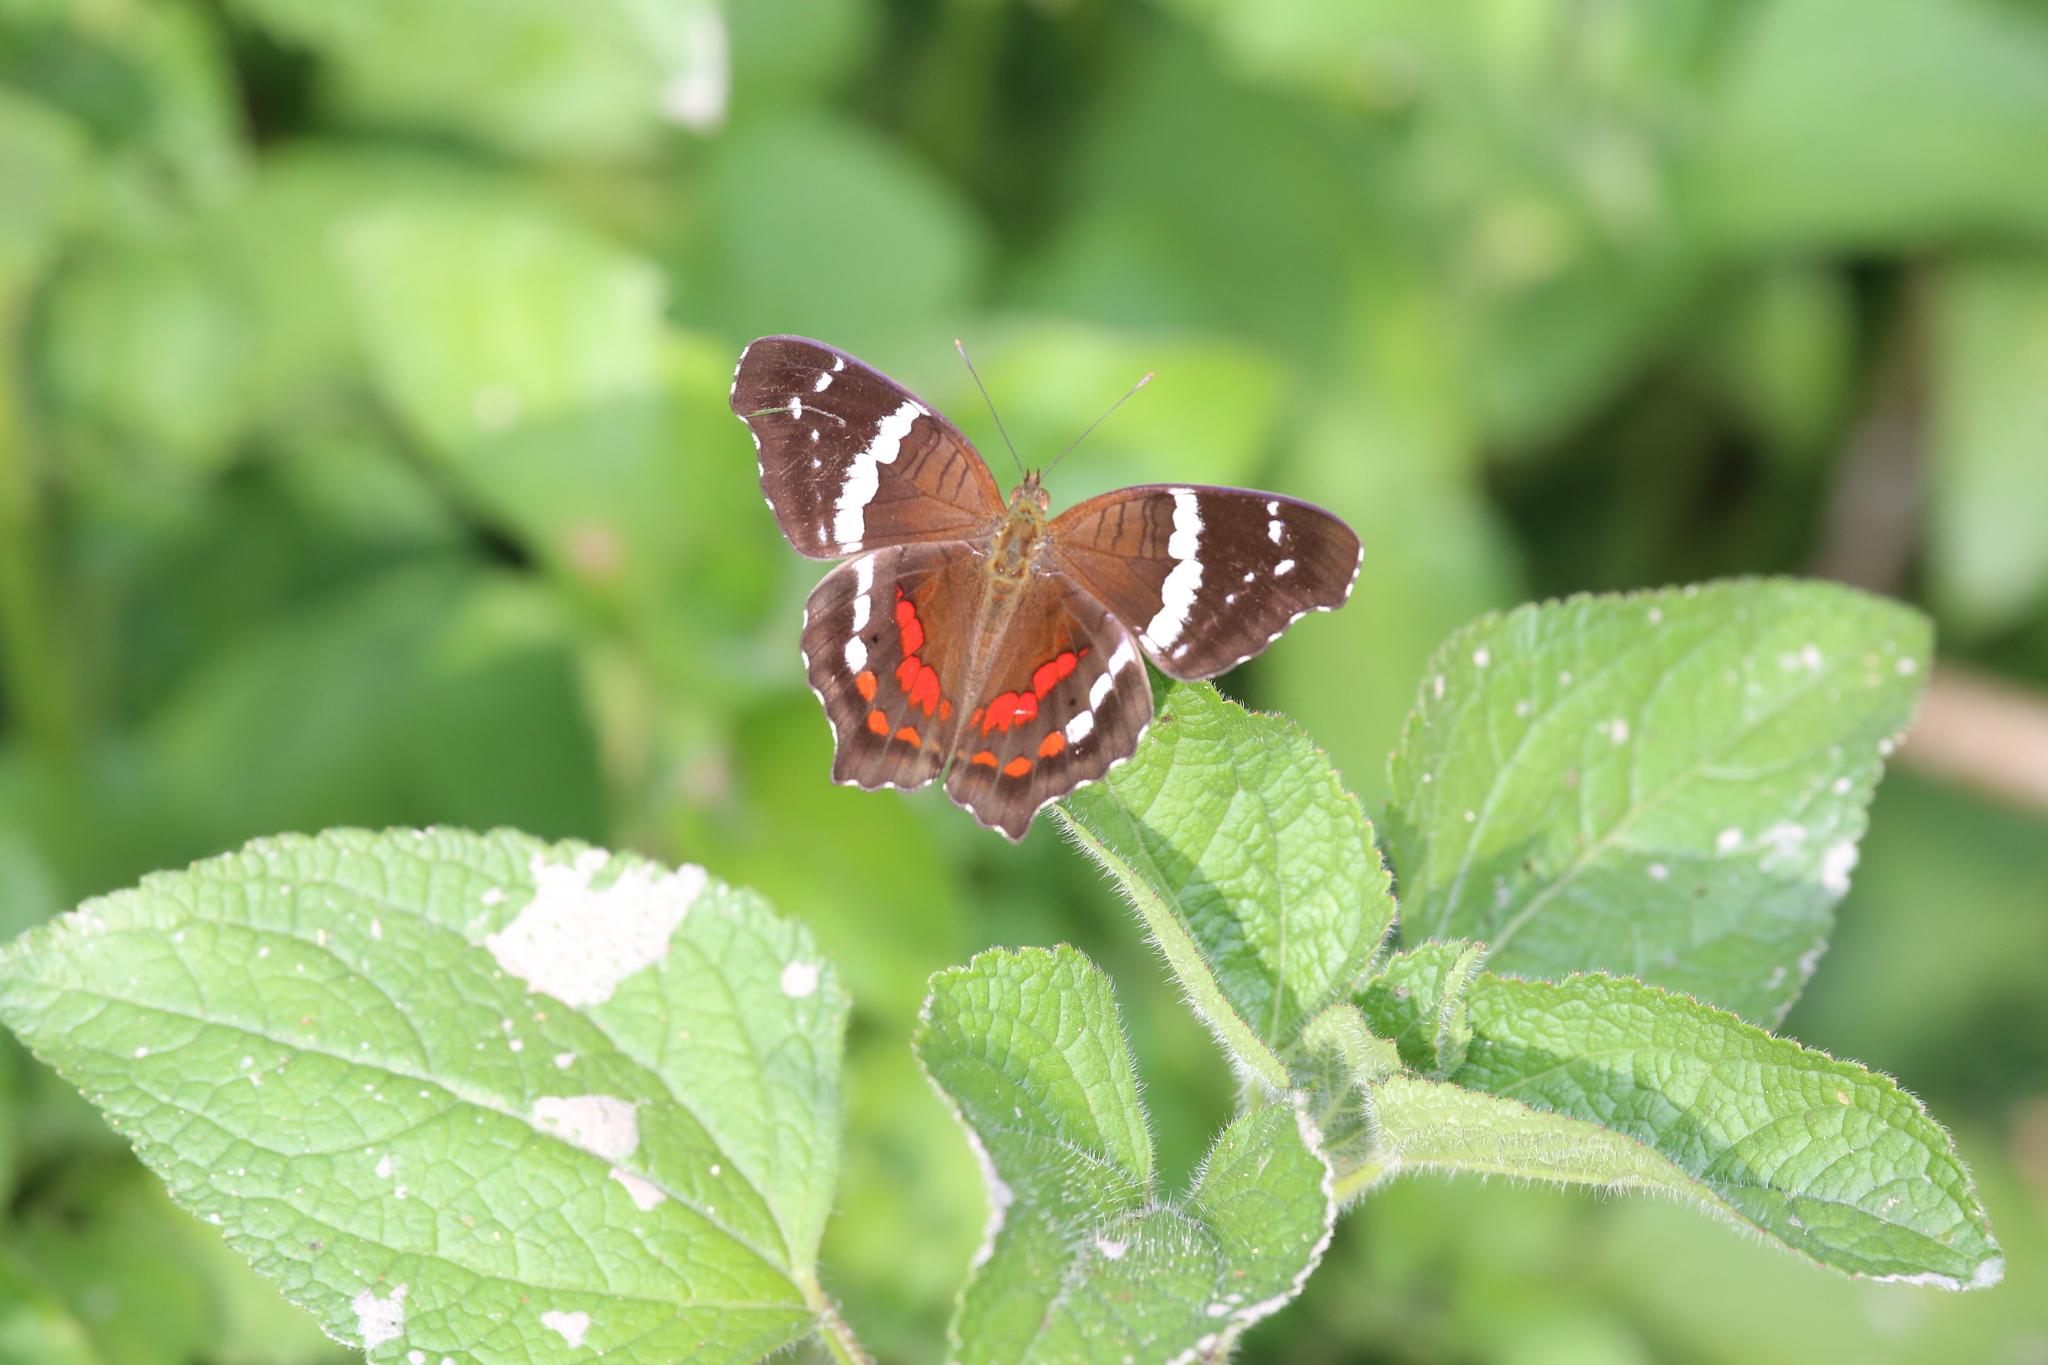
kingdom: Animalia
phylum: Arthropoda
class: Insecta
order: Lepidoptera
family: Nymphalidae
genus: Anartia
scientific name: Anartia fatima
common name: Banded peacock
